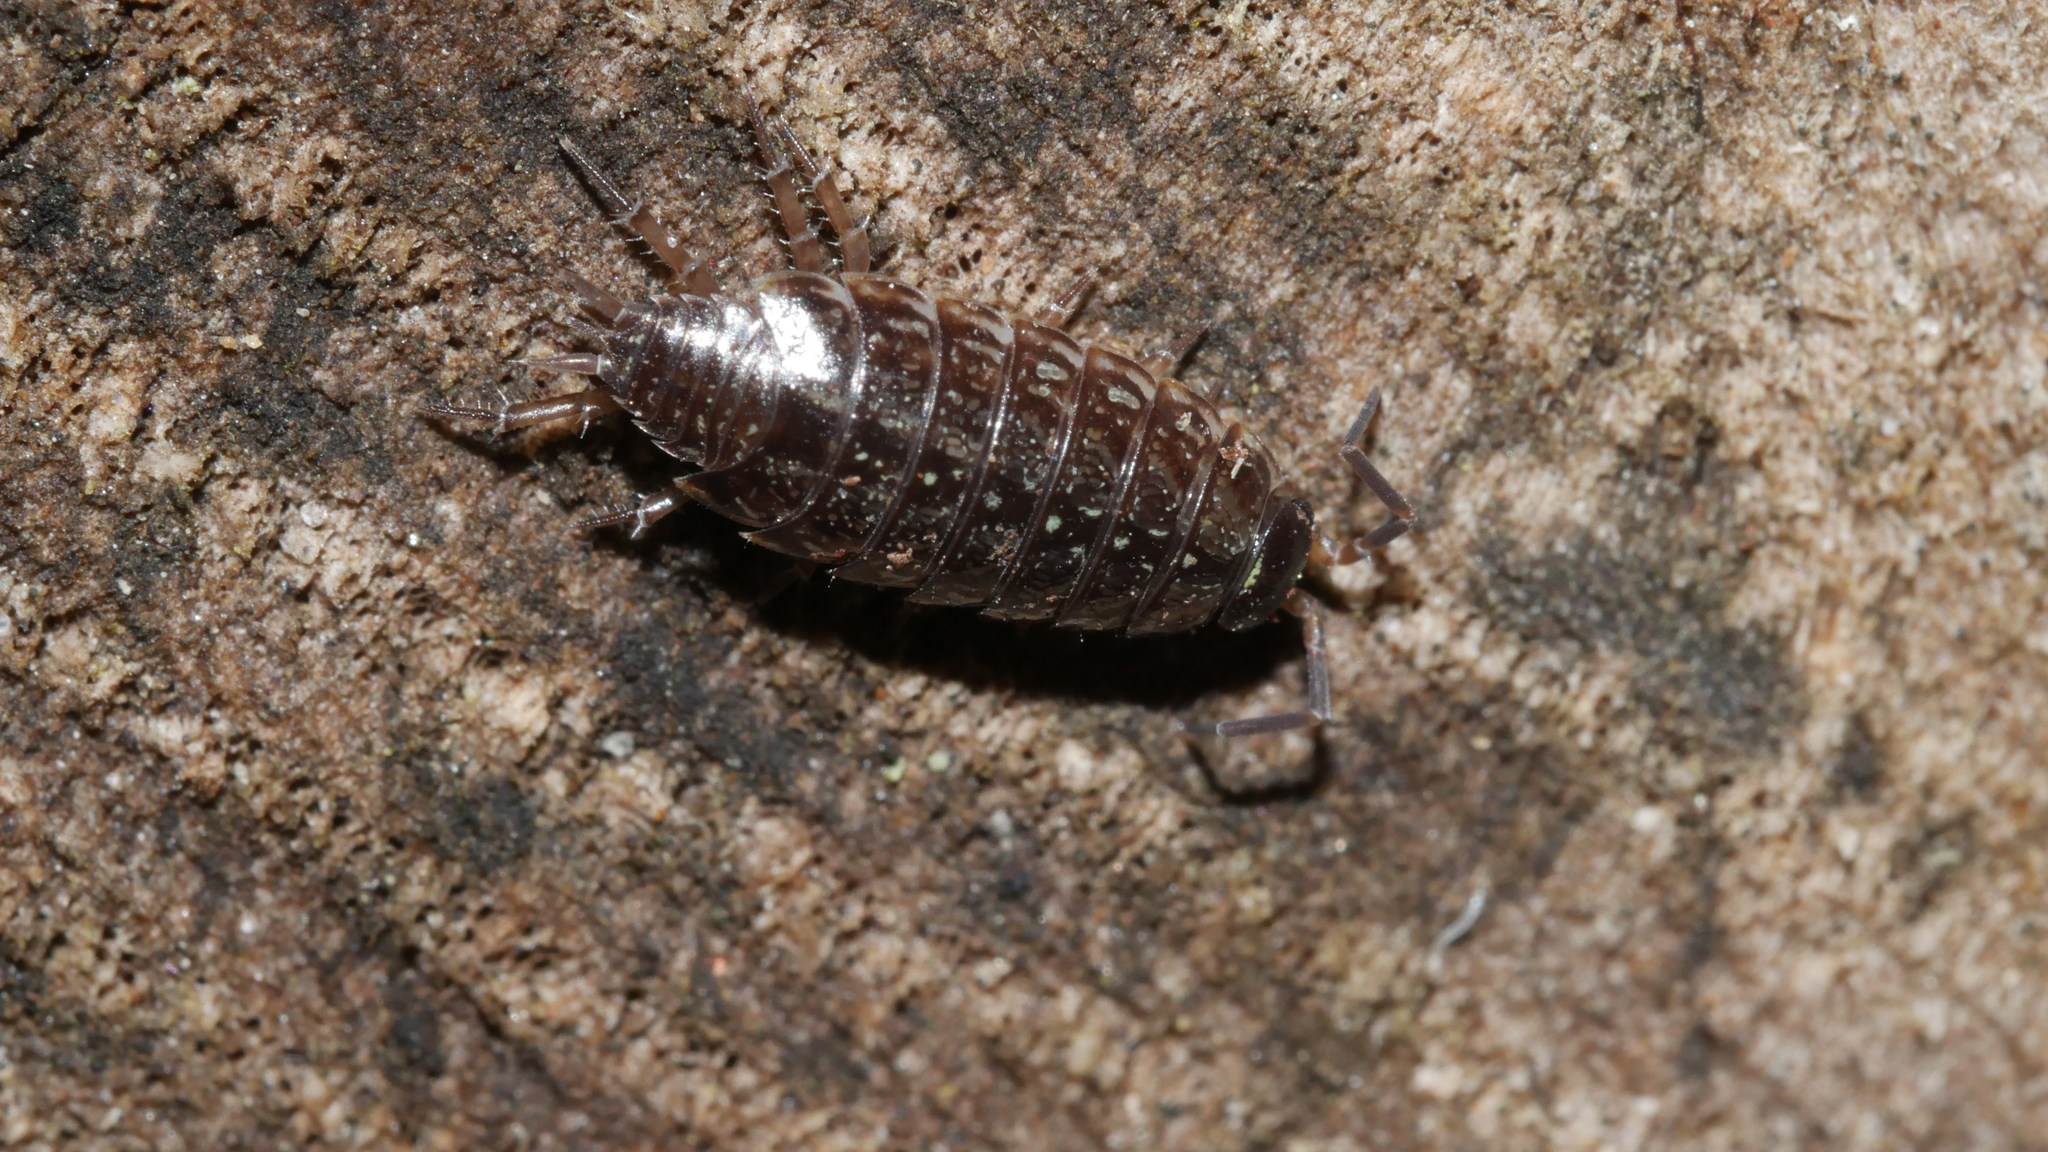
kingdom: Animalia
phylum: Arthropoda
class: Malacostraca
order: Isopoda
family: Philosciidae
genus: Philoscia
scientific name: Philoscia muscorum
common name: Common striped woodlouse
